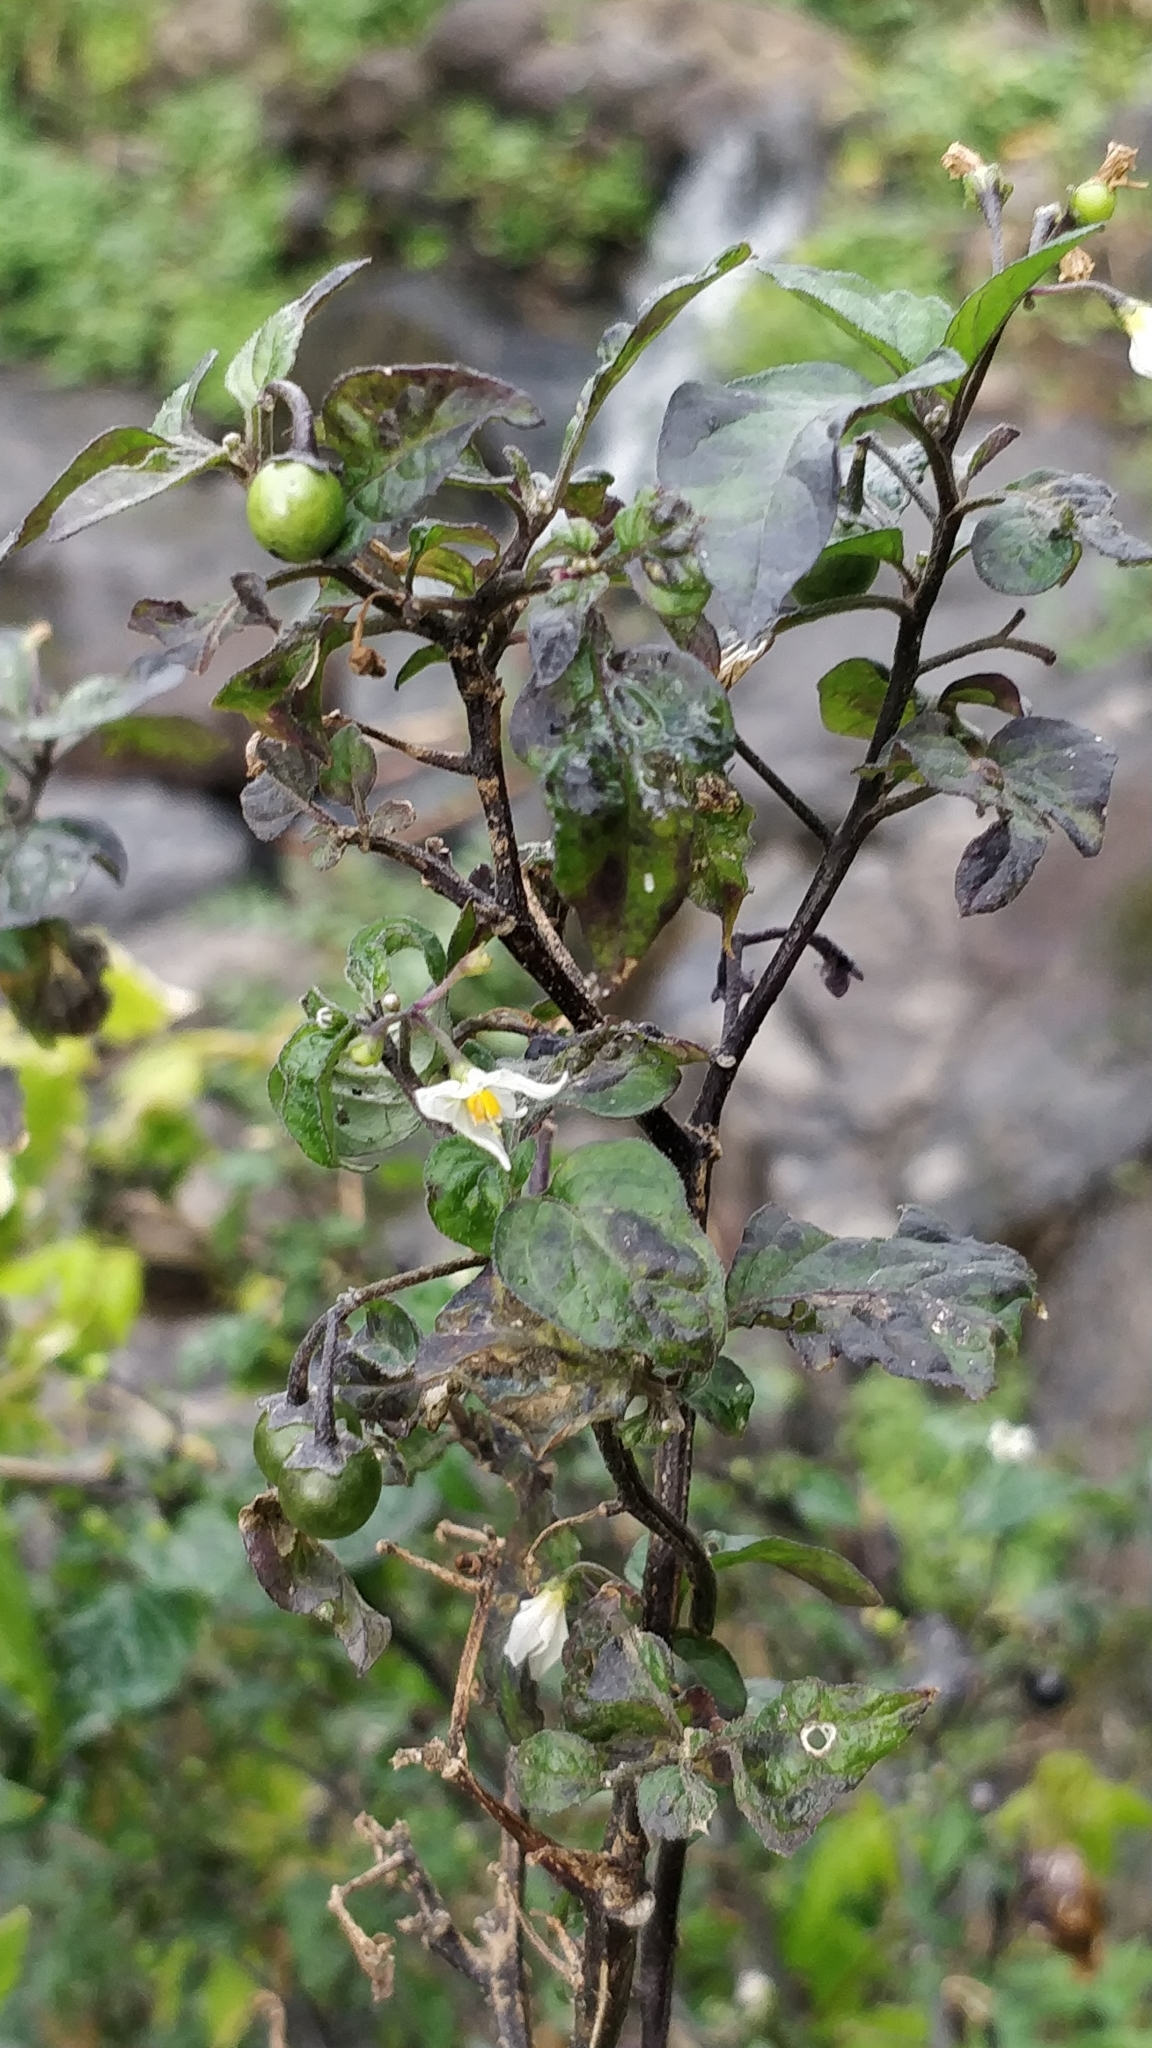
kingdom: Plantae
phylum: Tracheophyta
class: Magnoliopsida
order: Solanales
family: Solanaceae
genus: Solanum
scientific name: Solanum nigrum
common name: Black nightshade
